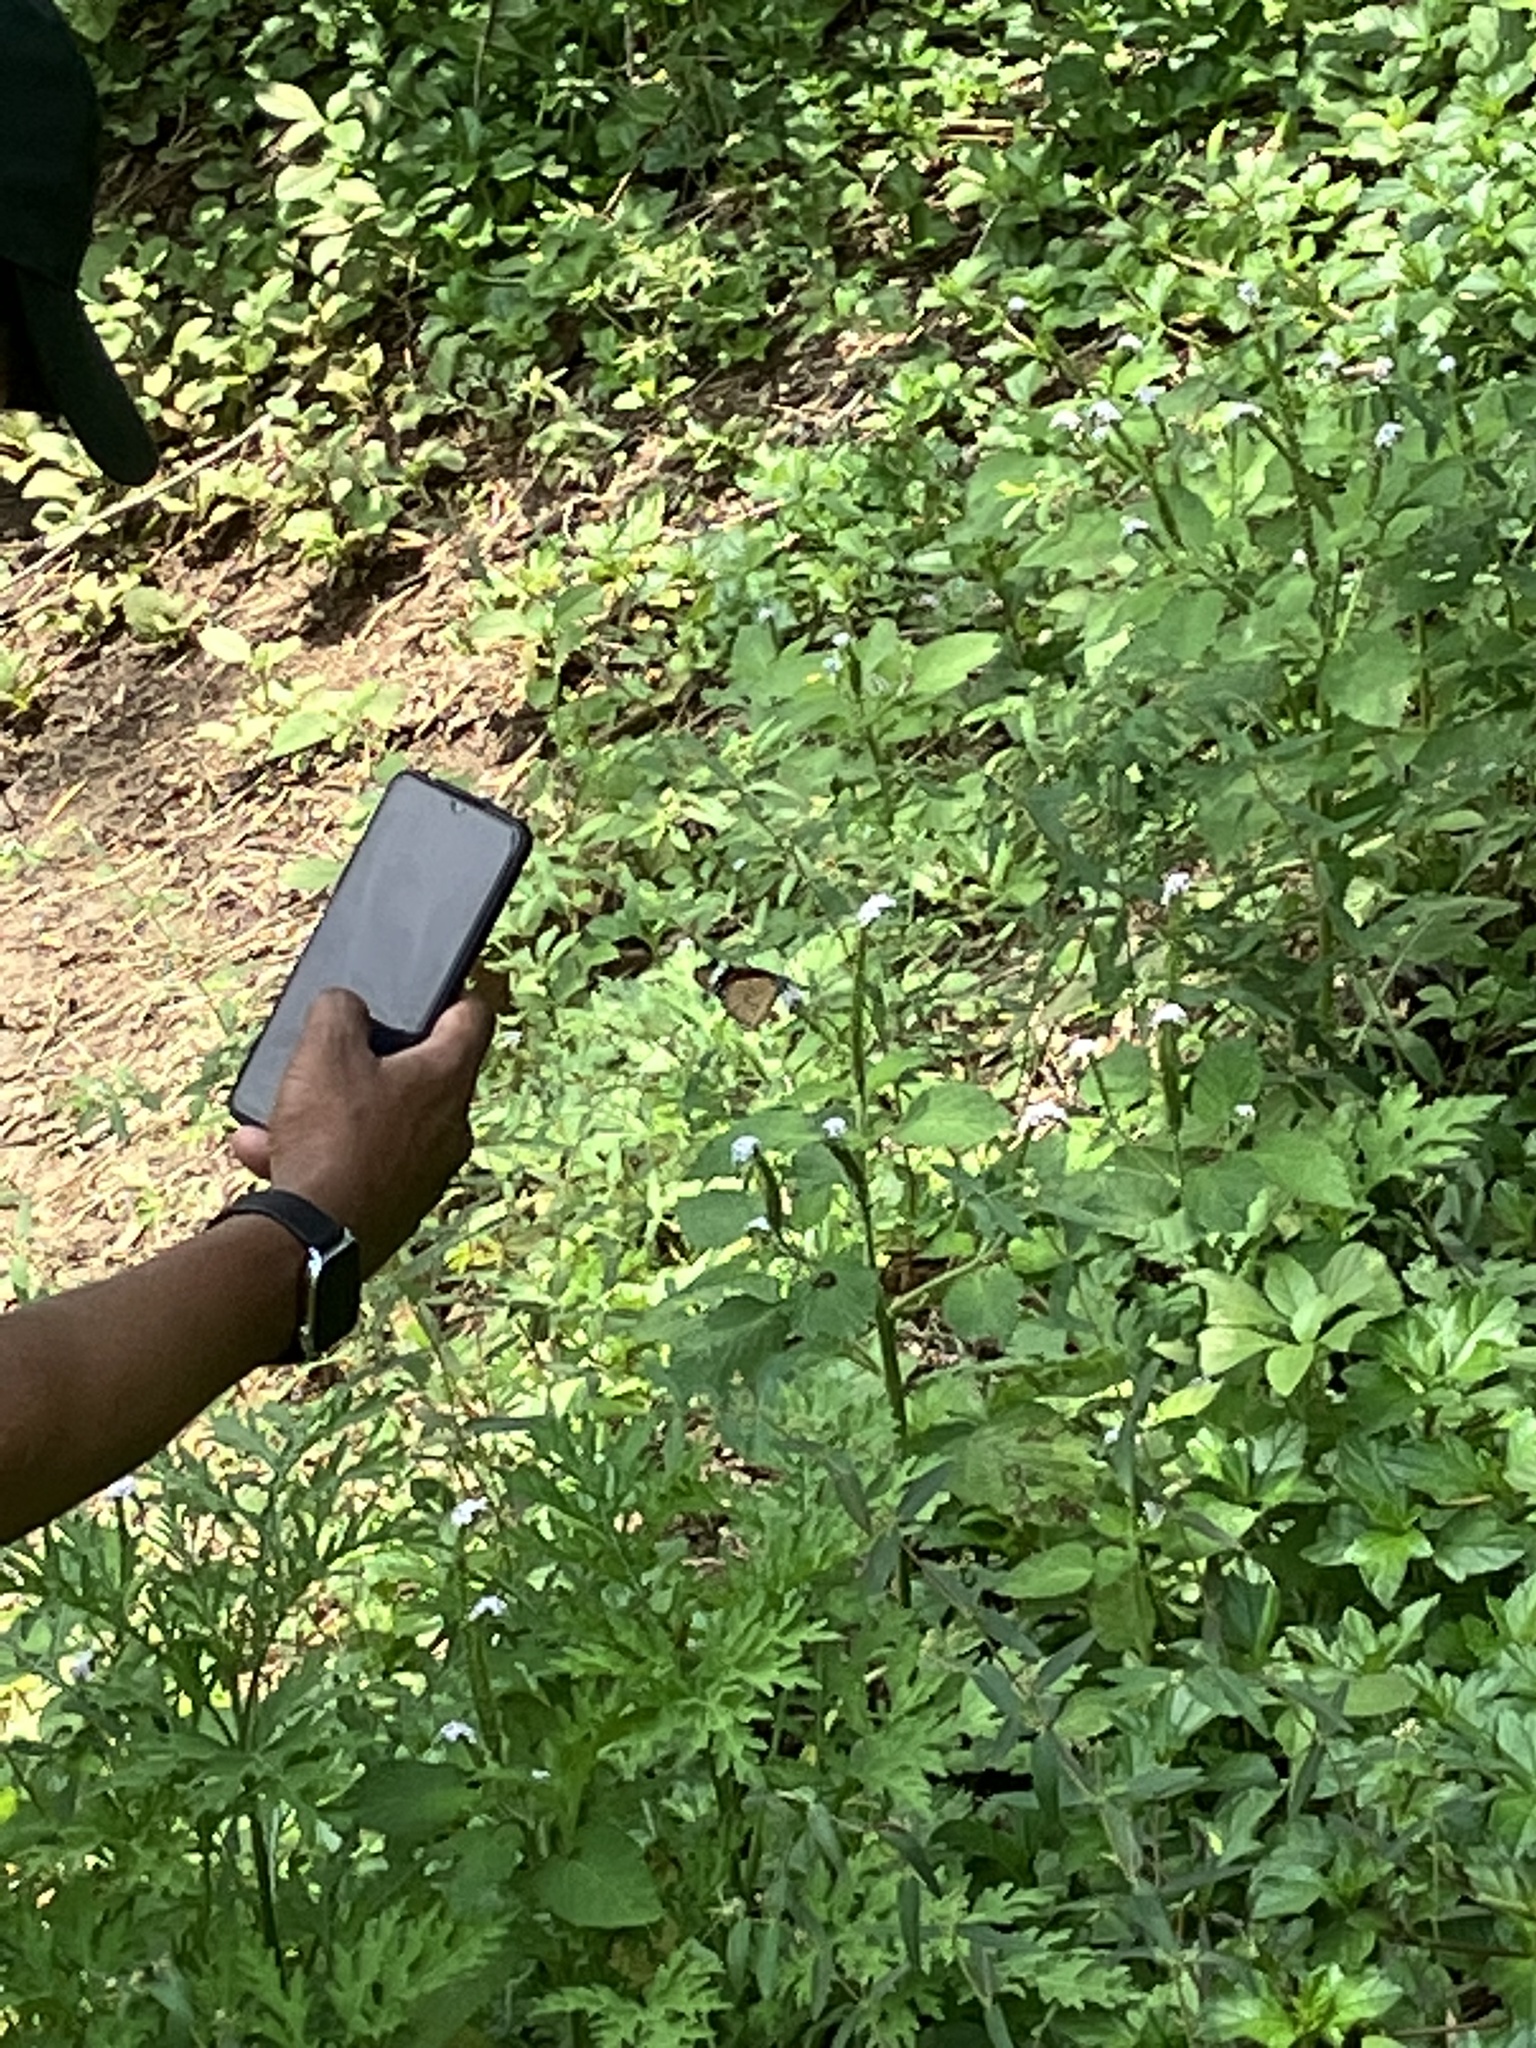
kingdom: Animalia
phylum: Arthropoda
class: Insecta
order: Lepidoptera
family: Nymphalidae
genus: Danaus
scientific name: Danaus chrysippus
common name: Plain tiger
